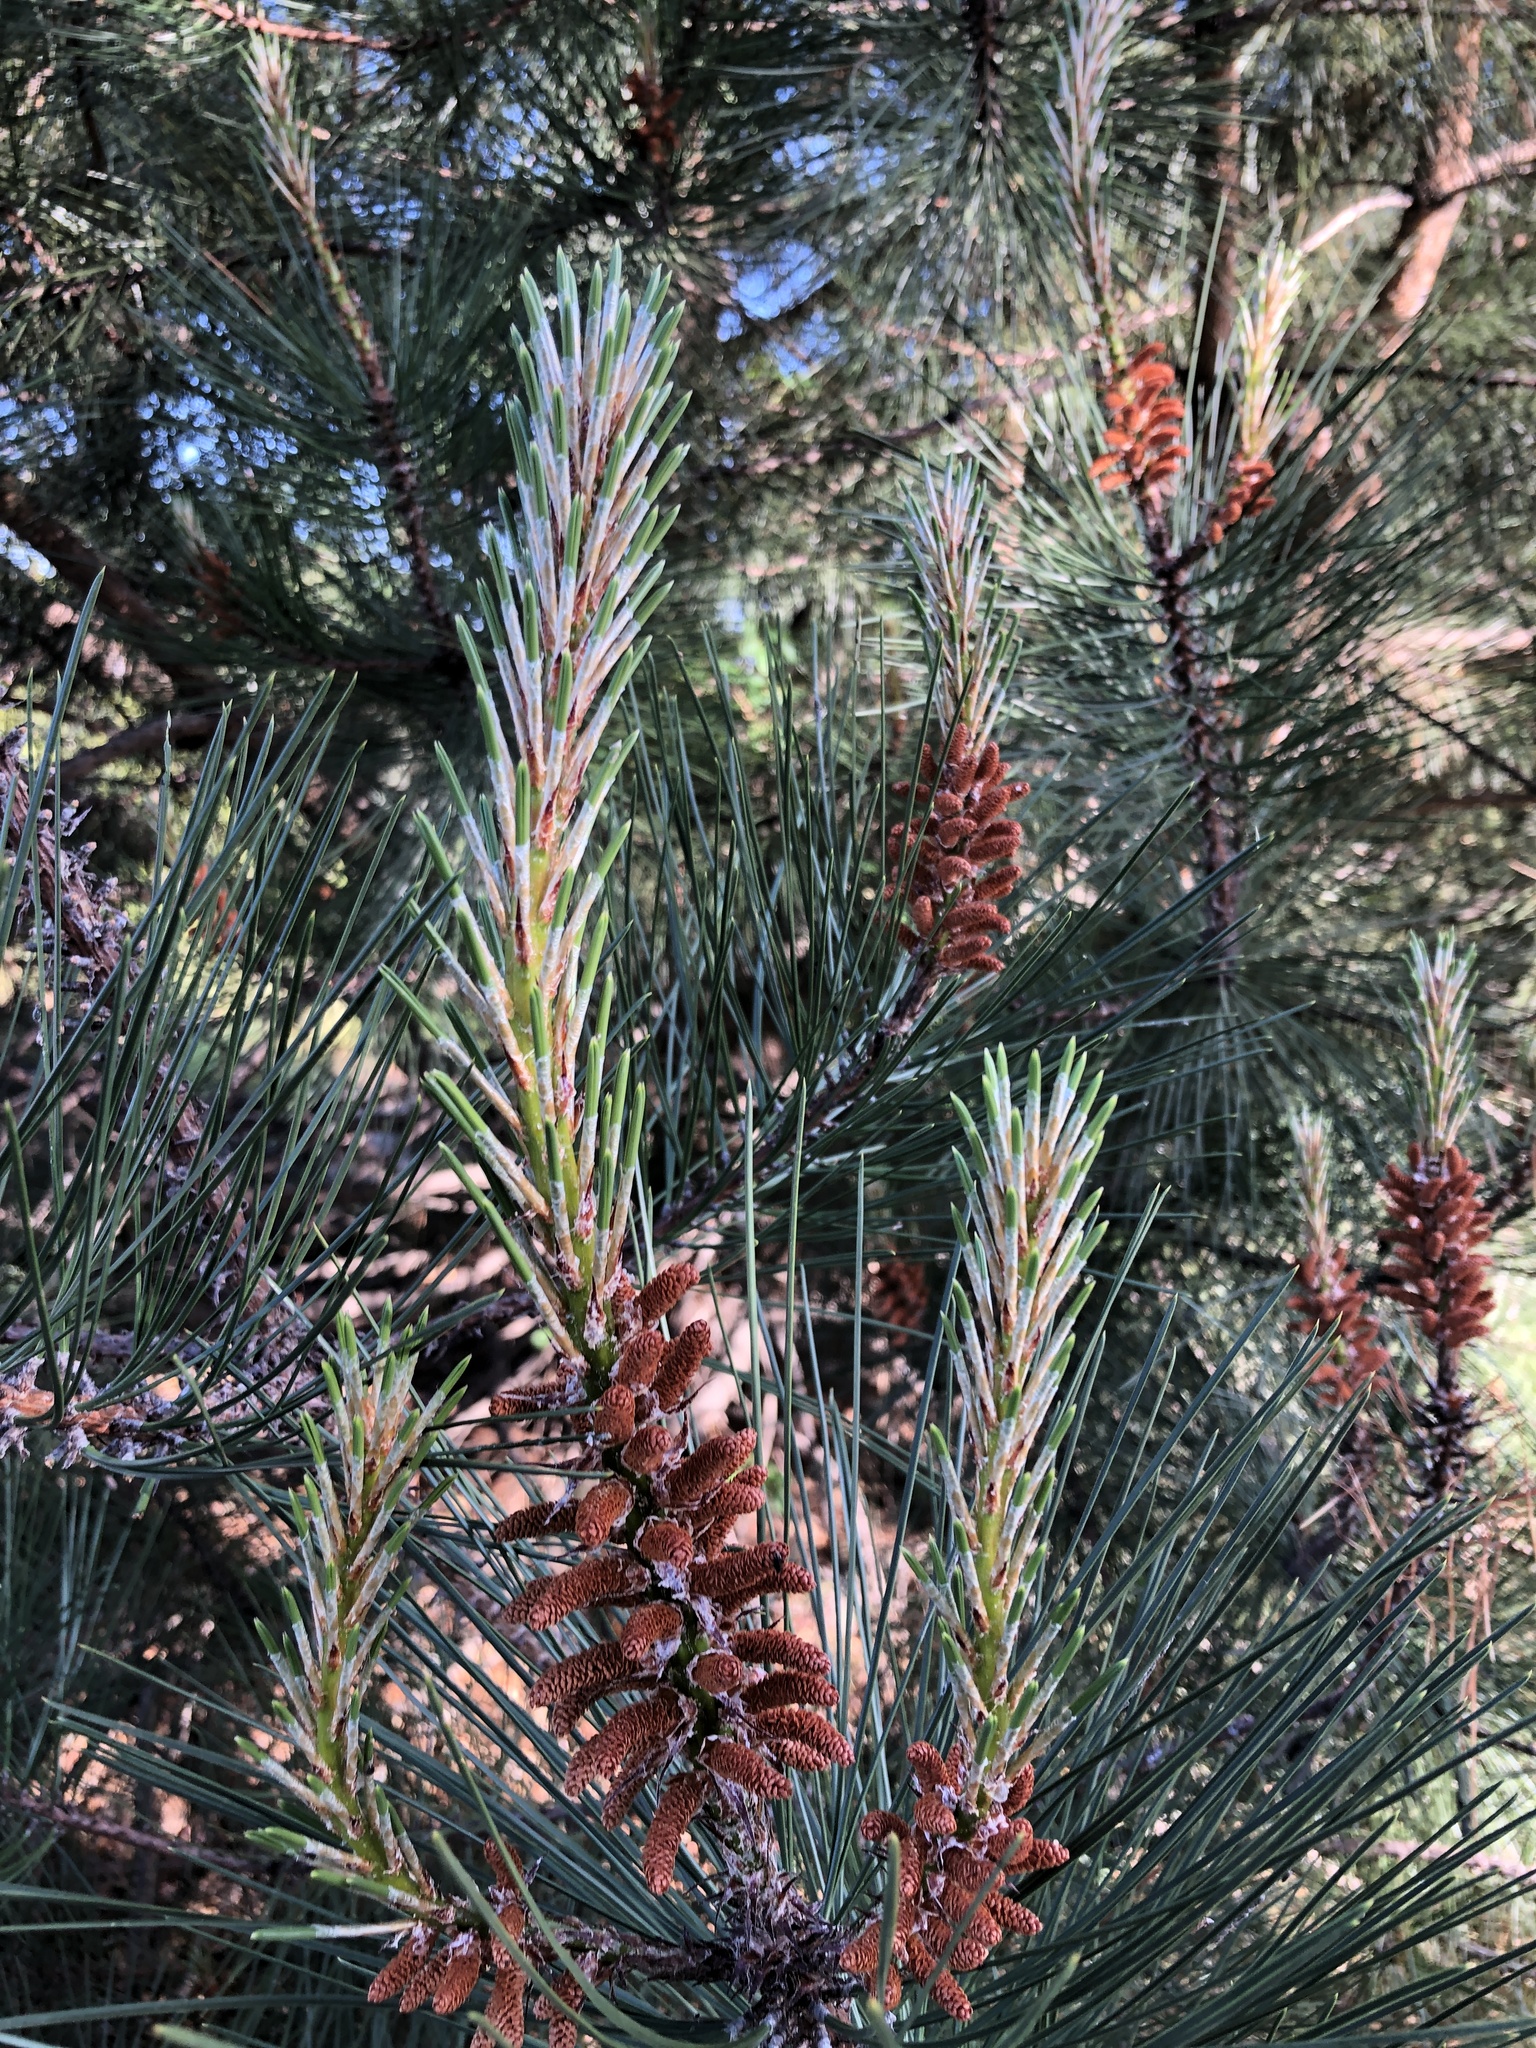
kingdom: Plantae
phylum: Tracheophyta
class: Pinopsida
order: Pinales
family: Pinaceae
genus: Pinus
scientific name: Pinus attenuata
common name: Knobcone pine
